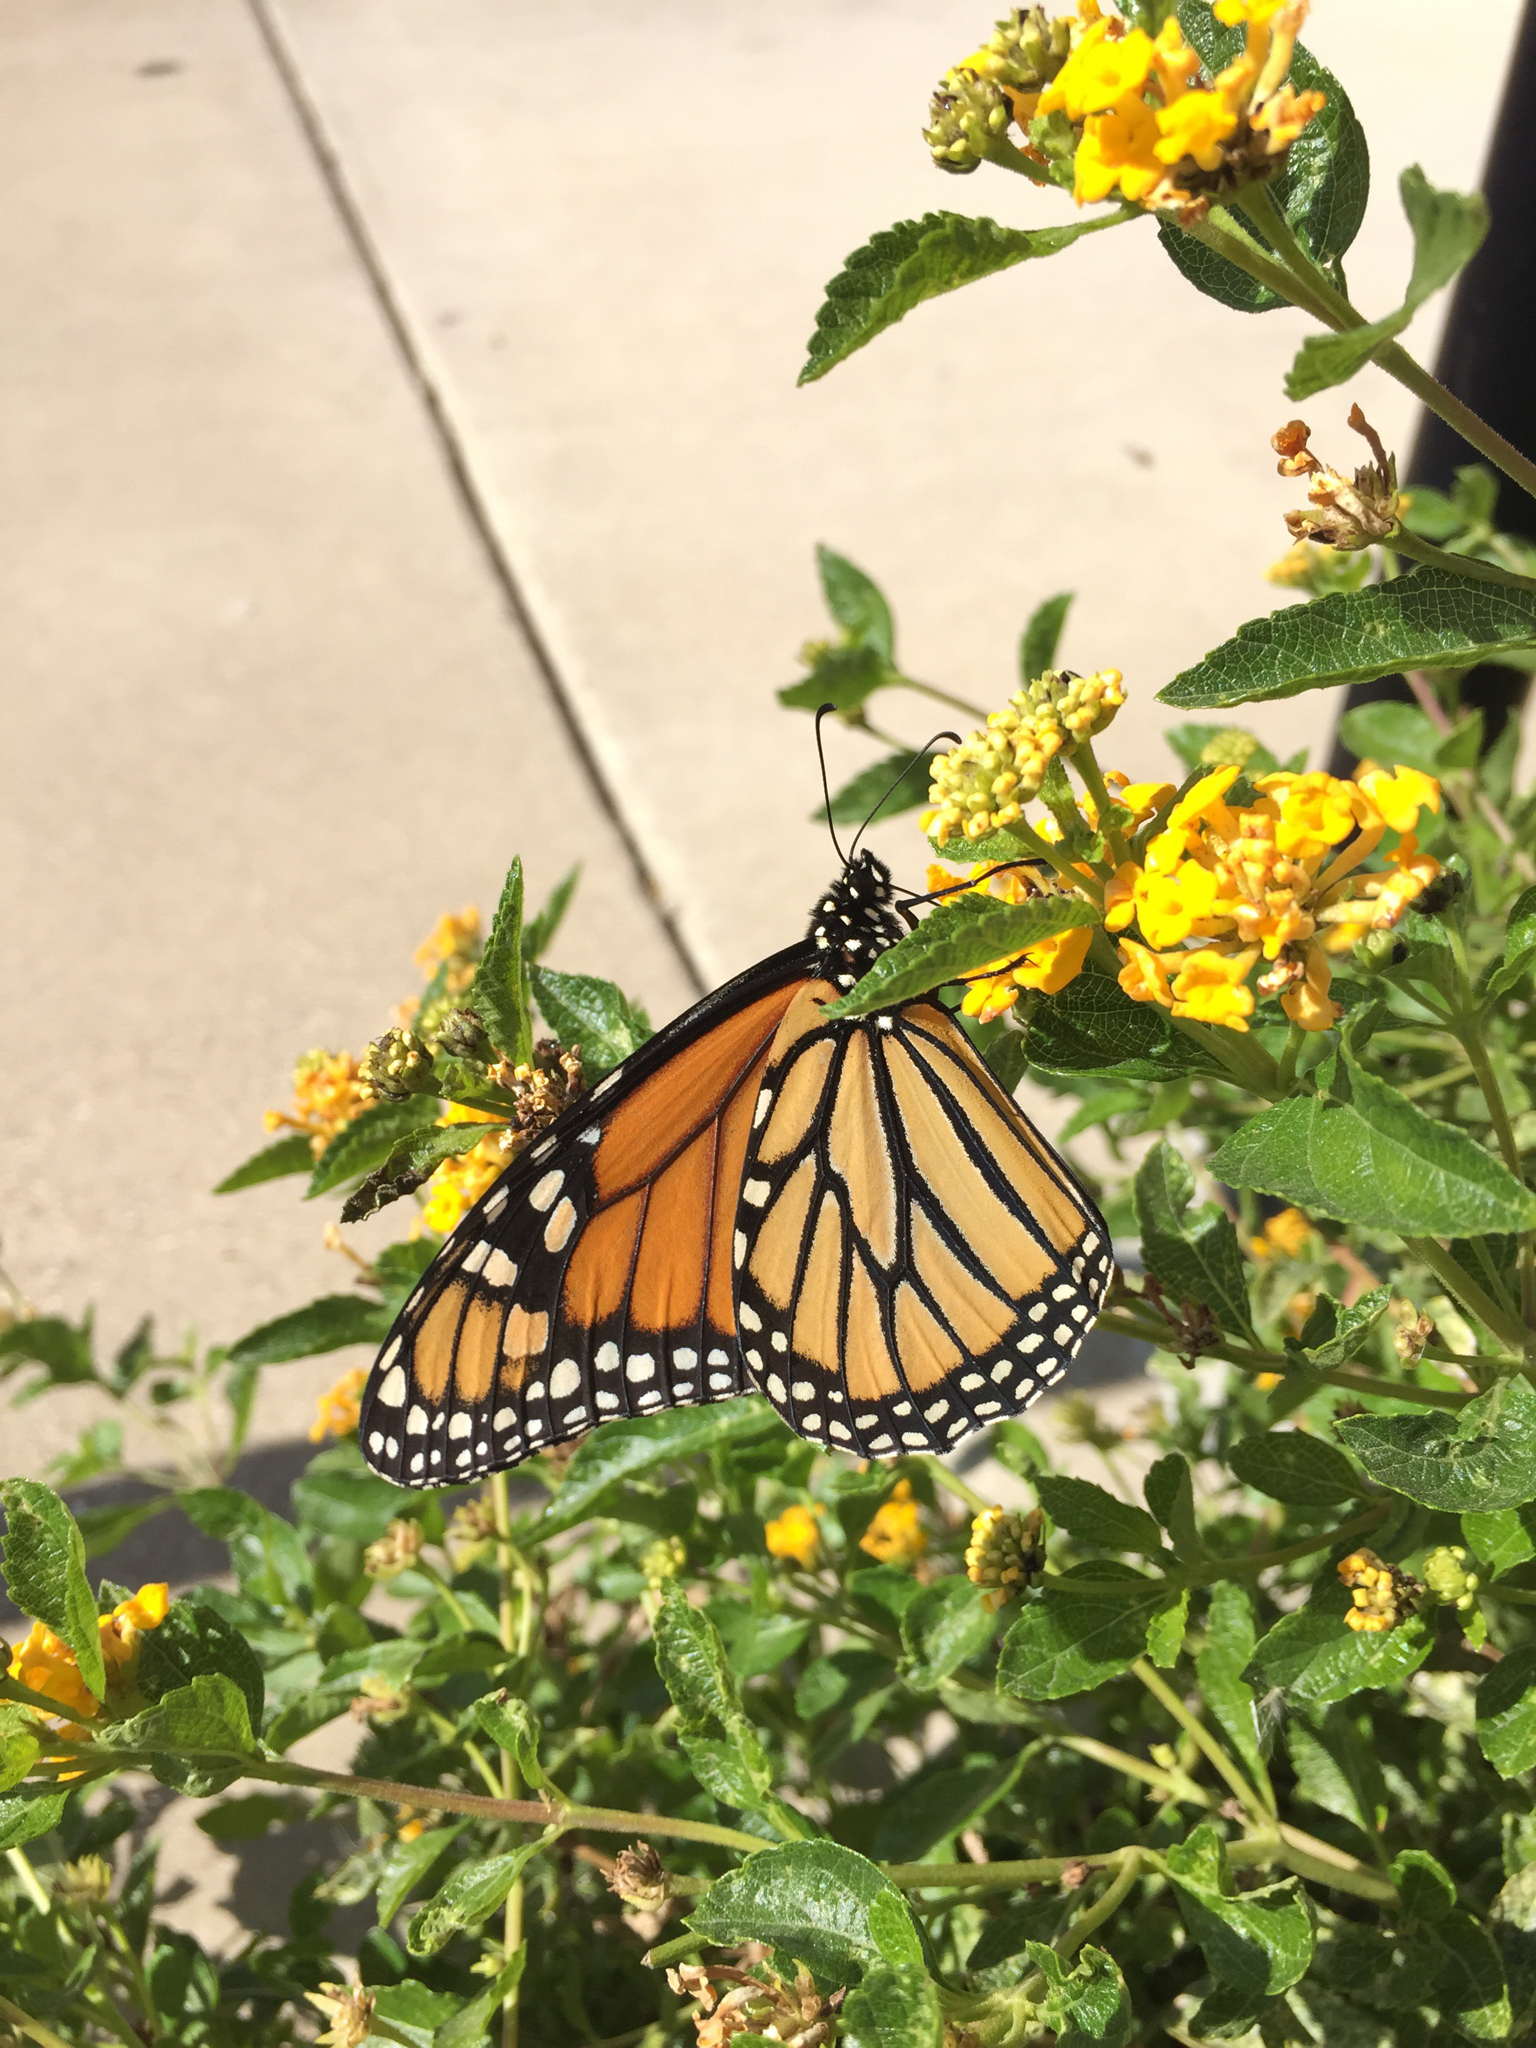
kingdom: Animalia
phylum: Arthropoda
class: Insecta
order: Lepidoptera
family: Nymphalidae
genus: Danaus
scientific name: Danaus plexippus
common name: Monarch
